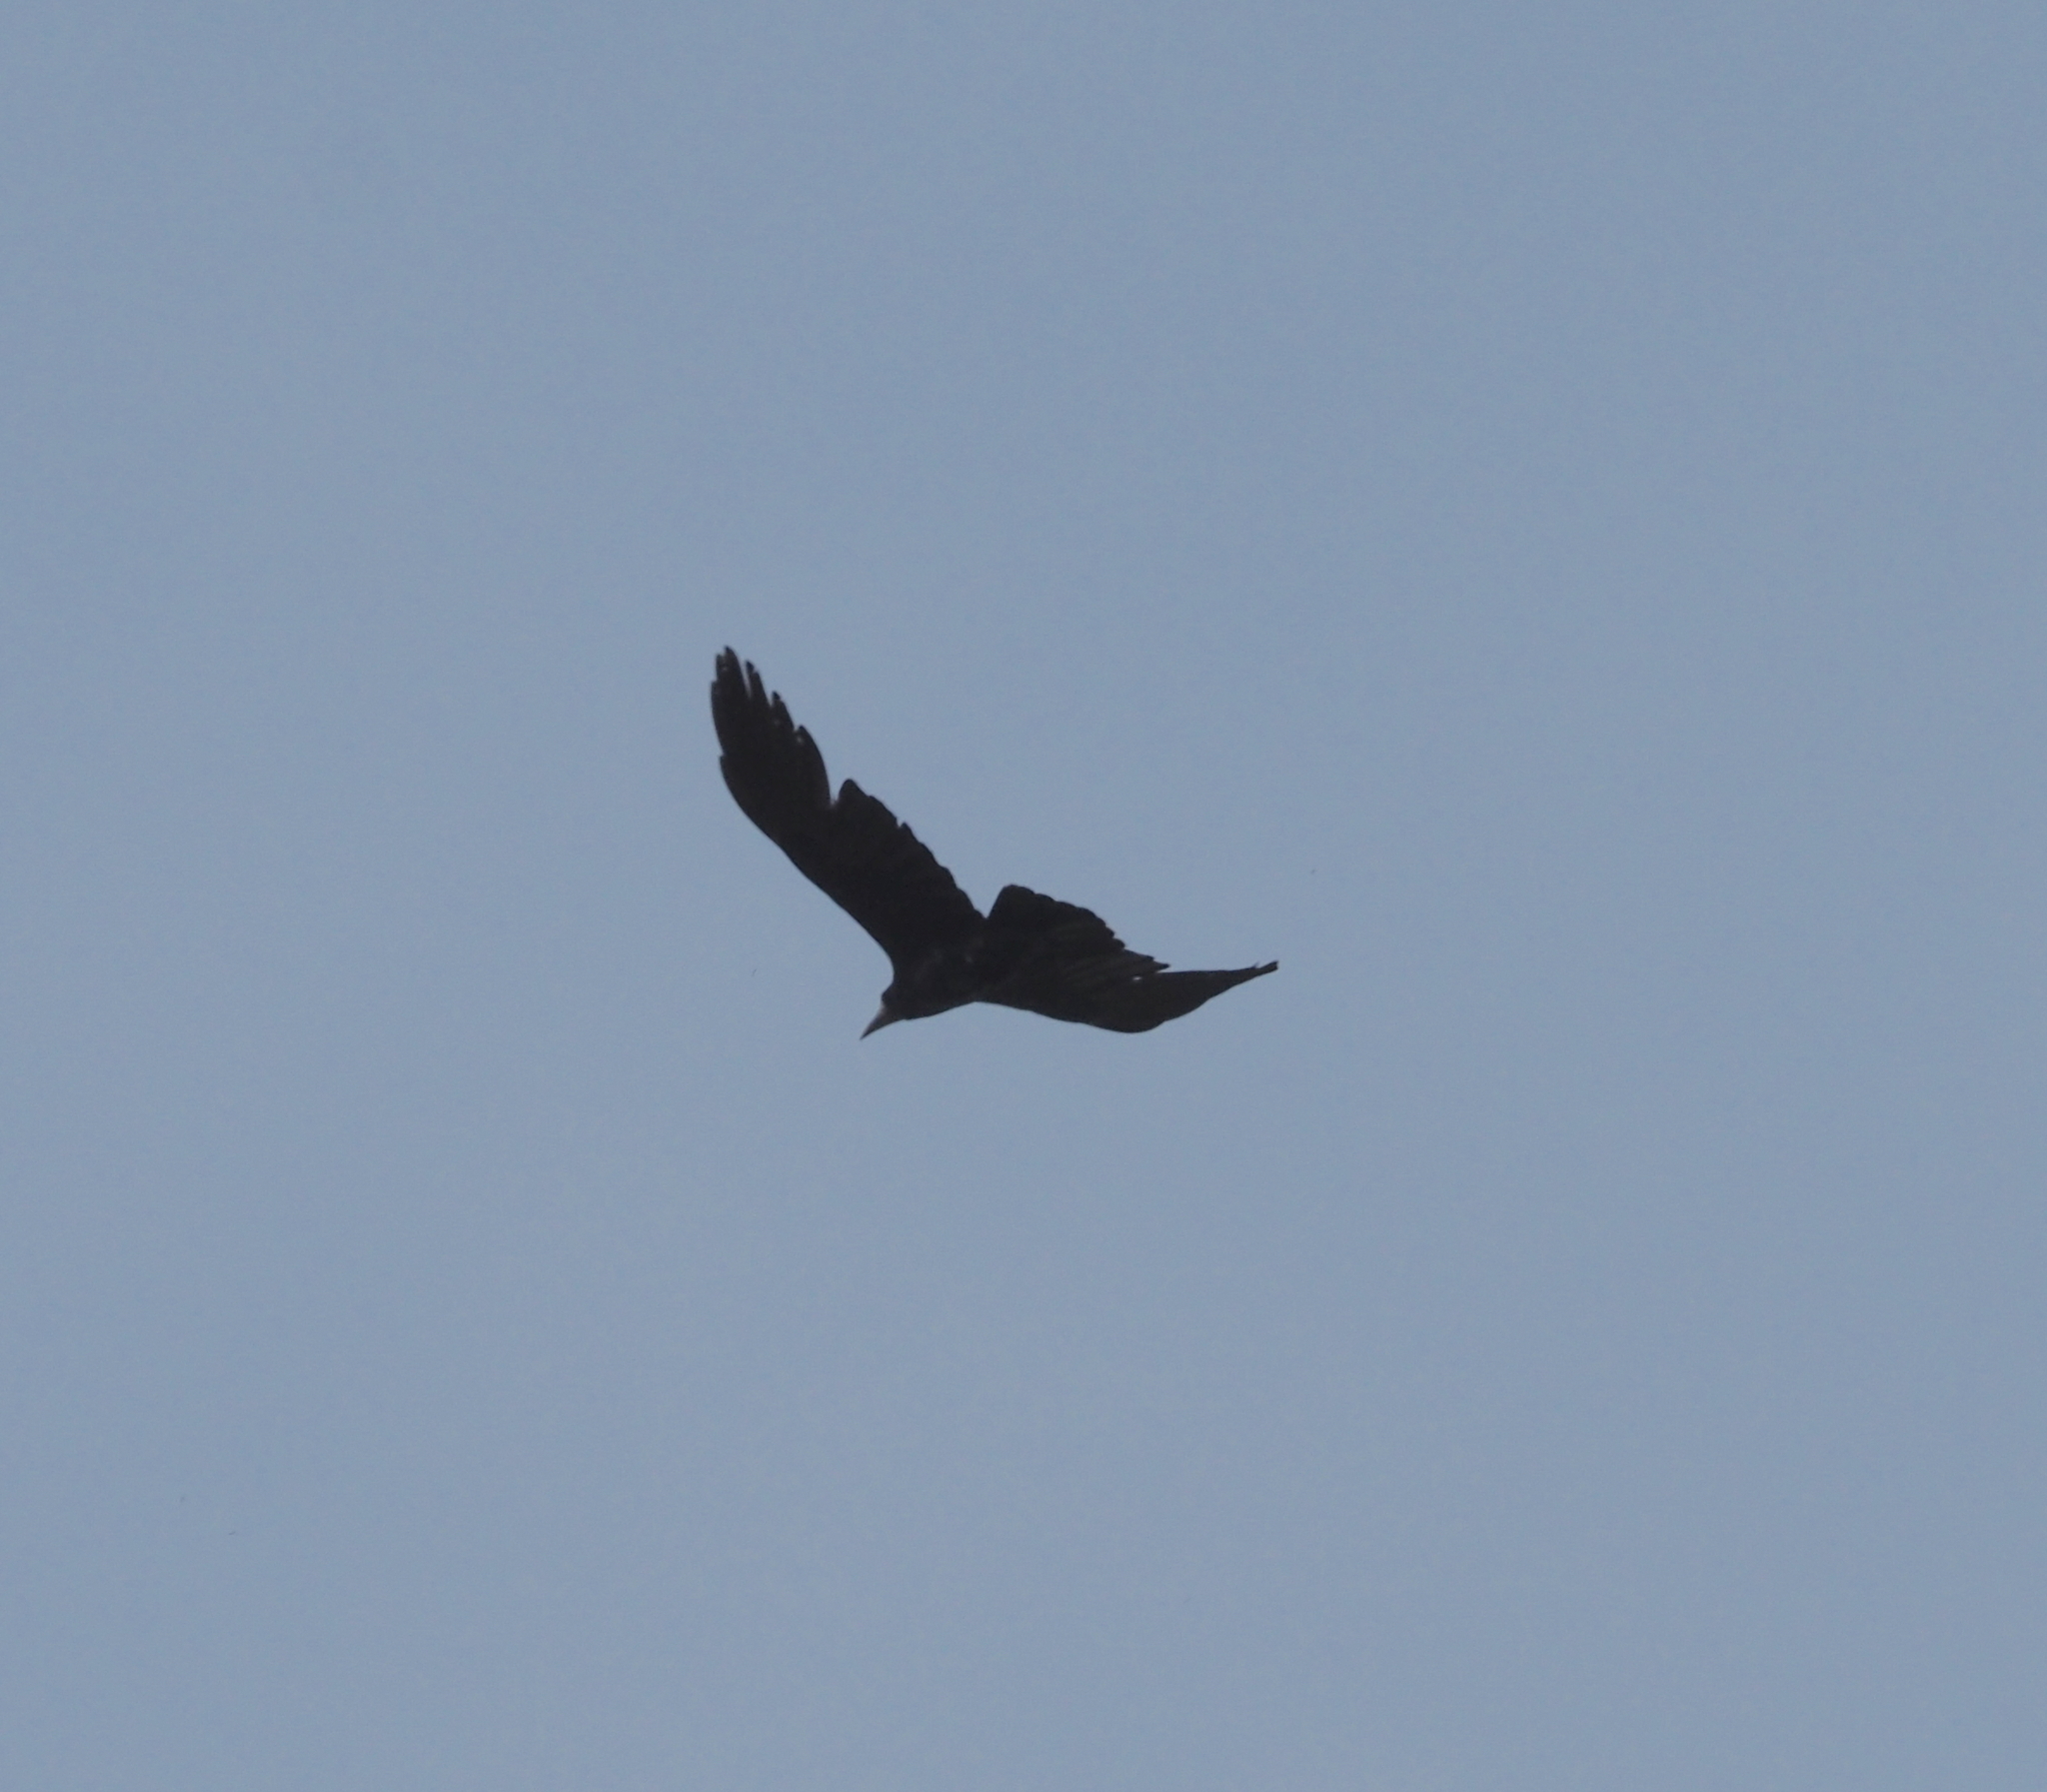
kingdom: Animalia
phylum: Chordata
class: Aves
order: Passeriformes
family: Corvidae
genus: Corvus
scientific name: Corvus frugilegus
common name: Rook
